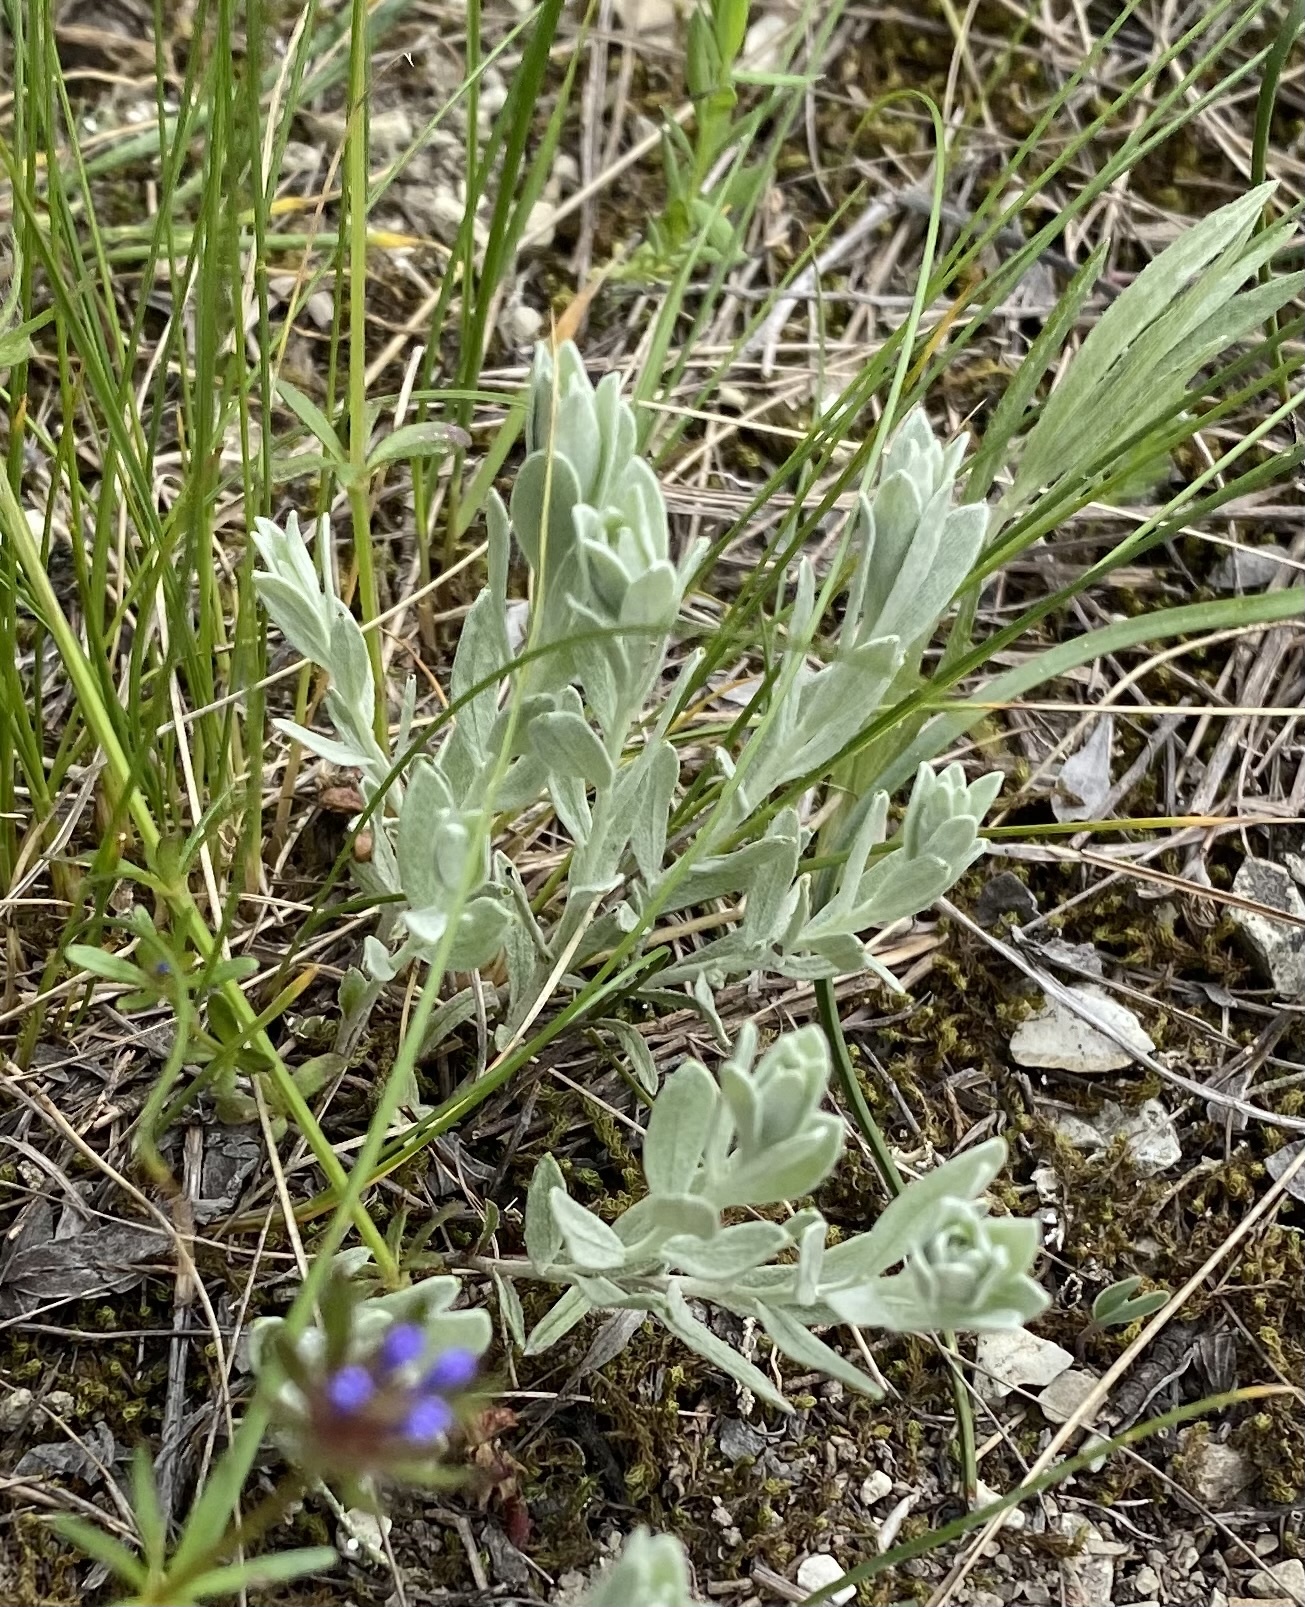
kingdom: Plantae
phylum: Tracheophyta
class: Magnoliopsida
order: Asterales
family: Asteraceae
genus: Galatella
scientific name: Galatella villosa
